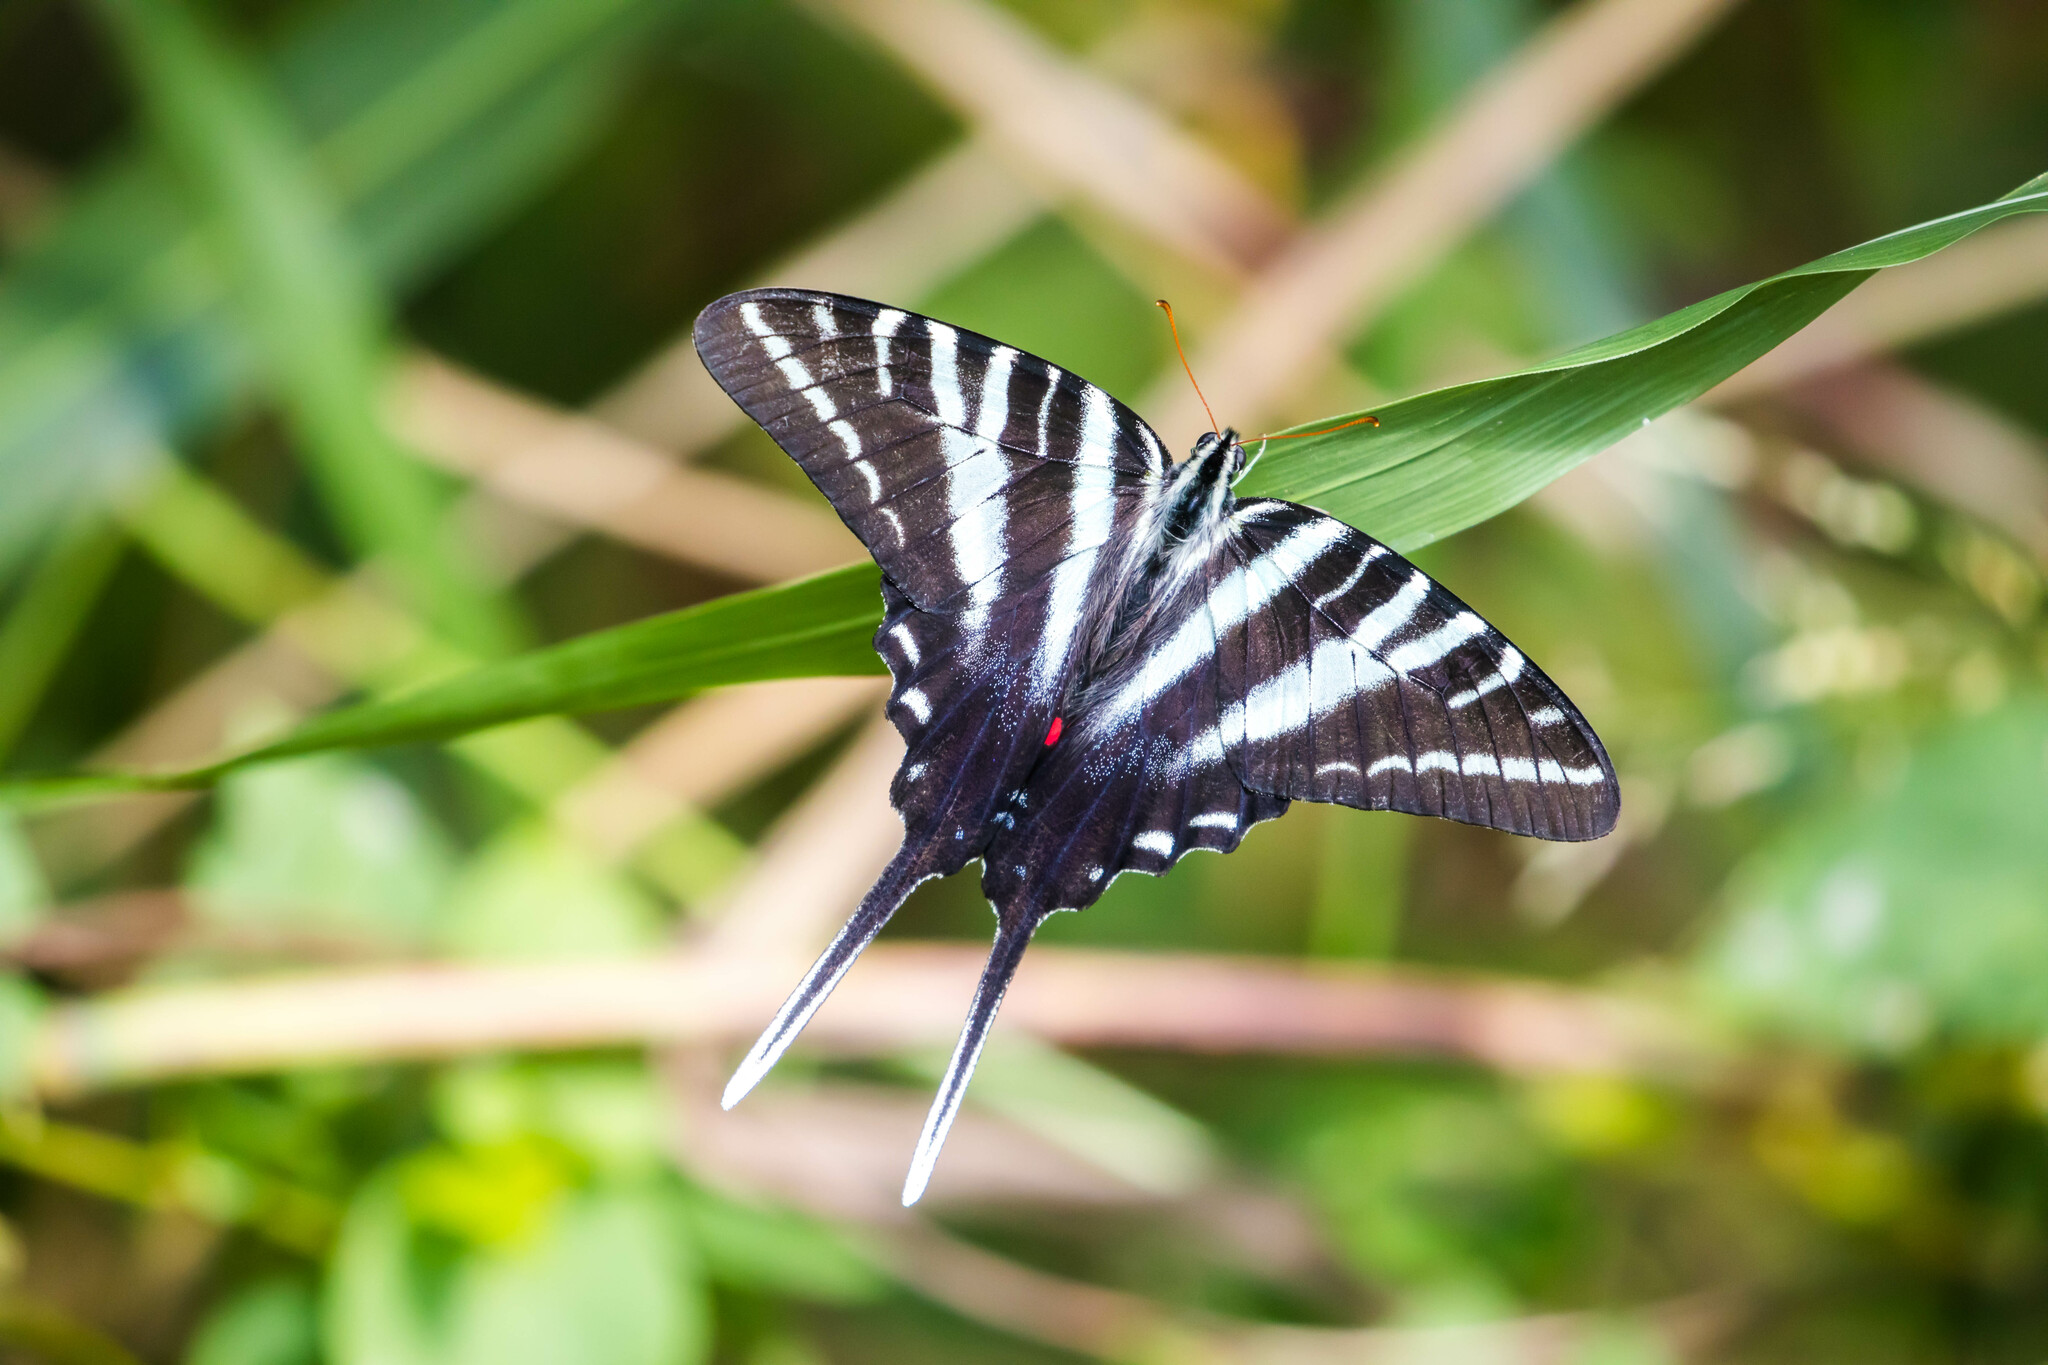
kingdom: Animalia
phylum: Arthropoda
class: Insecta
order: Lepidoptera
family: Papilionidae
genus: Protographium
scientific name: Protographium marcellus
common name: Zebra swallowtail
